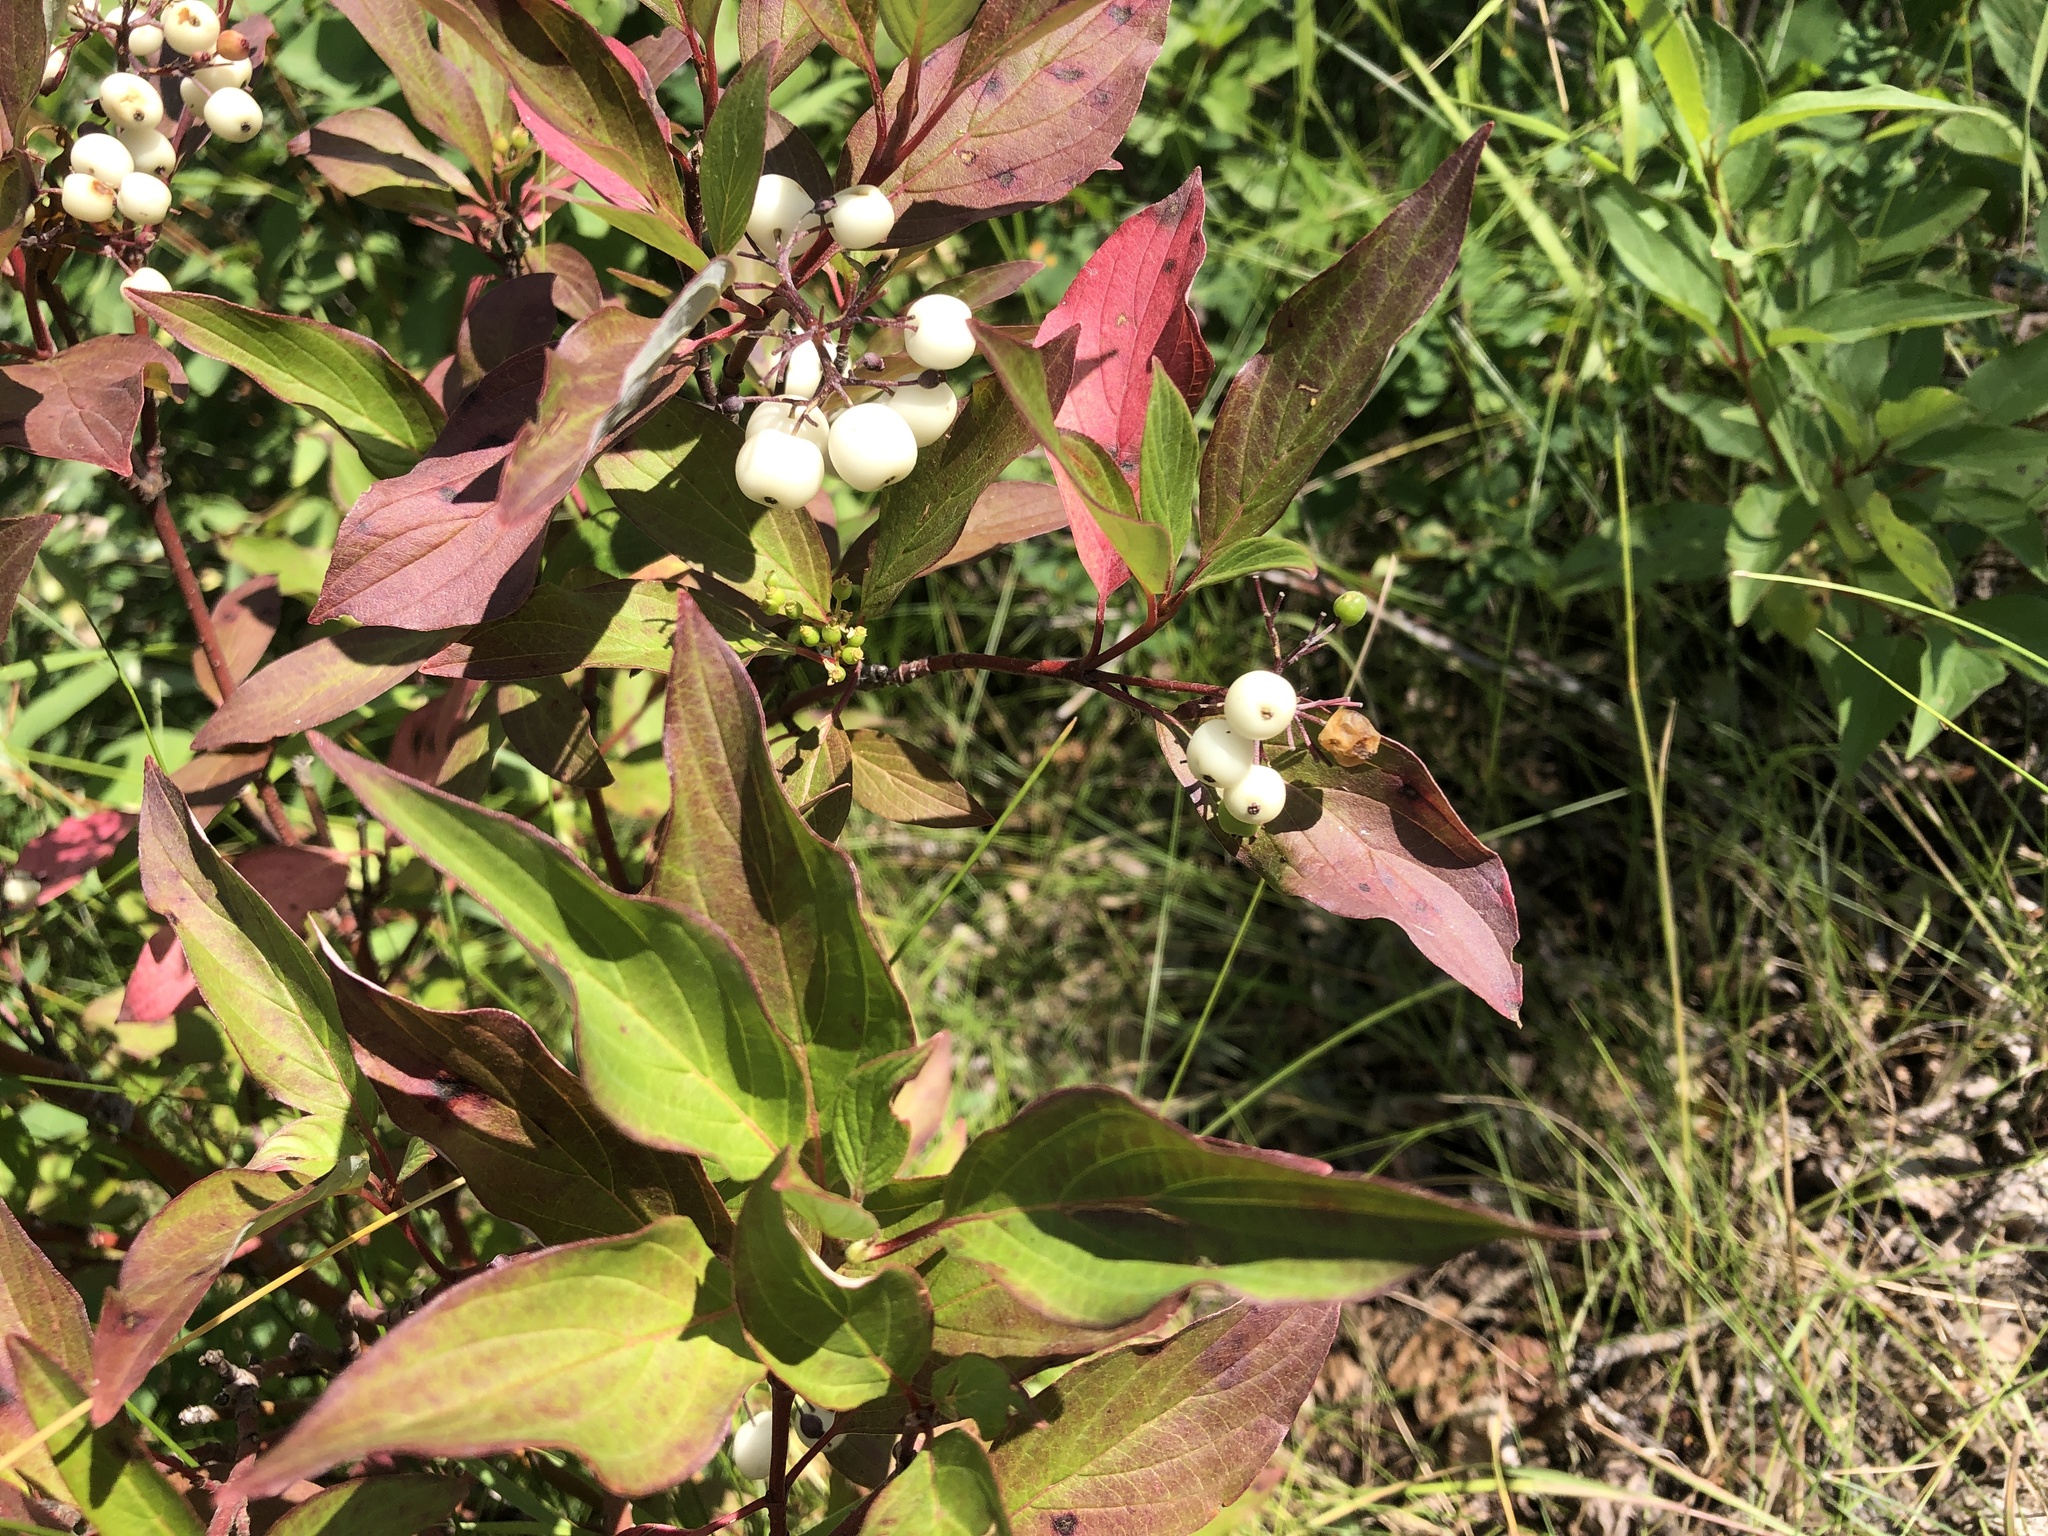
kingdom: Plantae
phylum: Tracheophyta
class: Magnoliopsida
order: Cornales
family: Cornaceae
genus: Cornus
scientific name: Cornus sericea
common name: Red-osier dogwood
